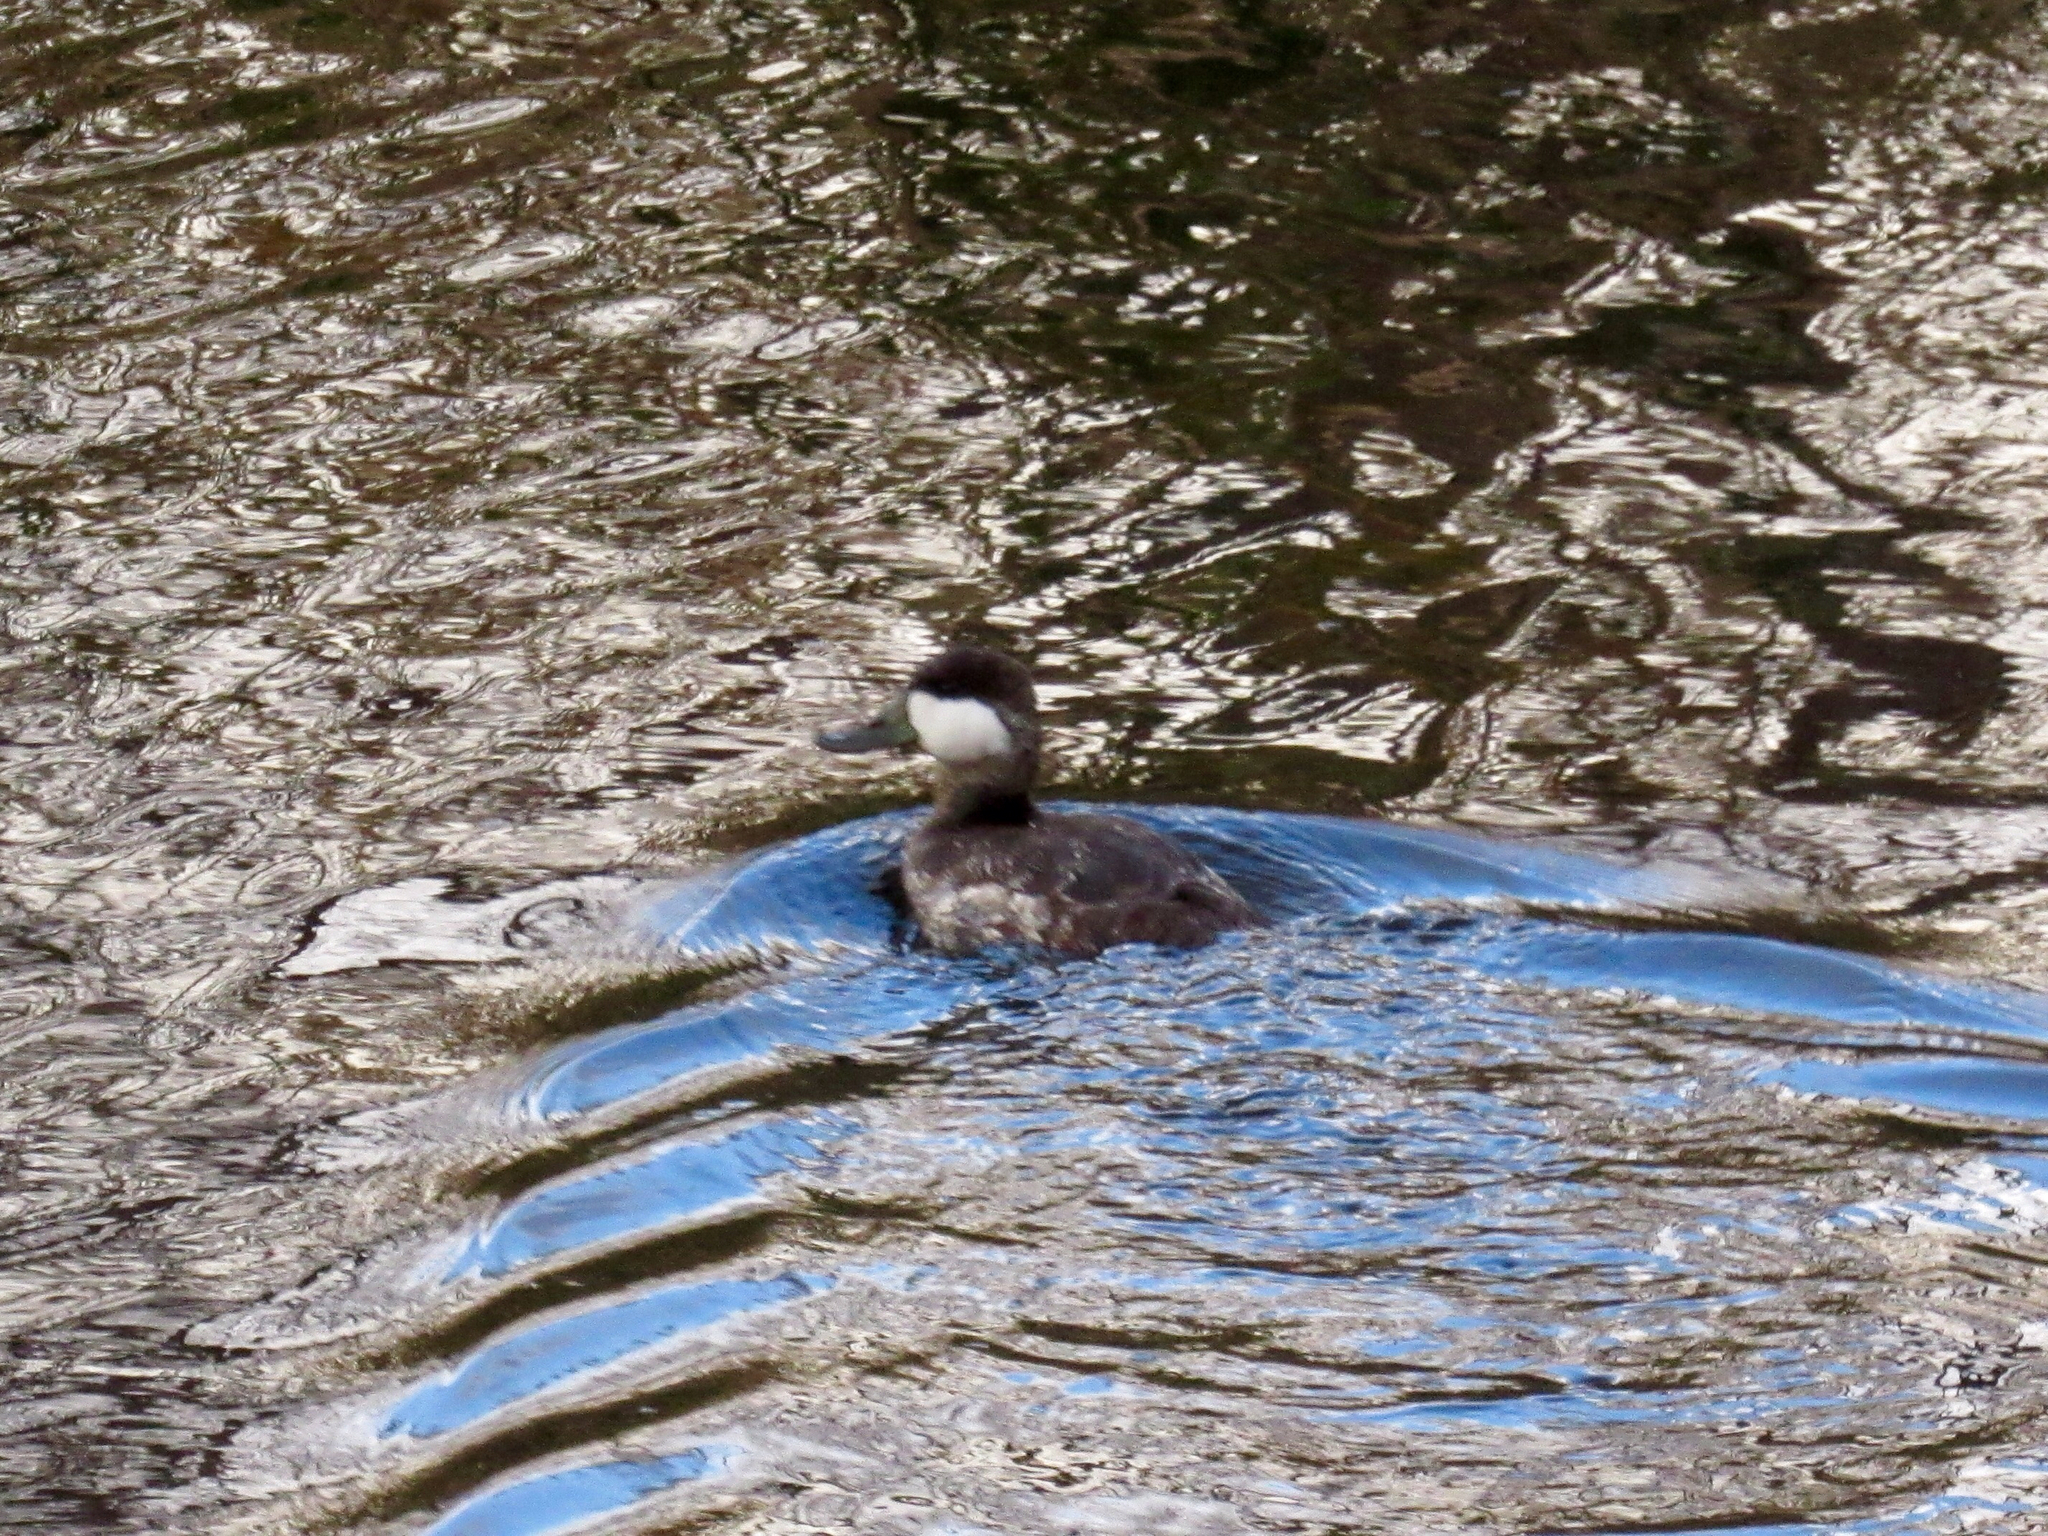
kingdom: Animalia
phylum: Chordata
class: Aves
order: Anseriformes
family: Anatidae
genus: Oxyura
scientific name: Oxyura jamaicensis
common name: Ruddy duck
